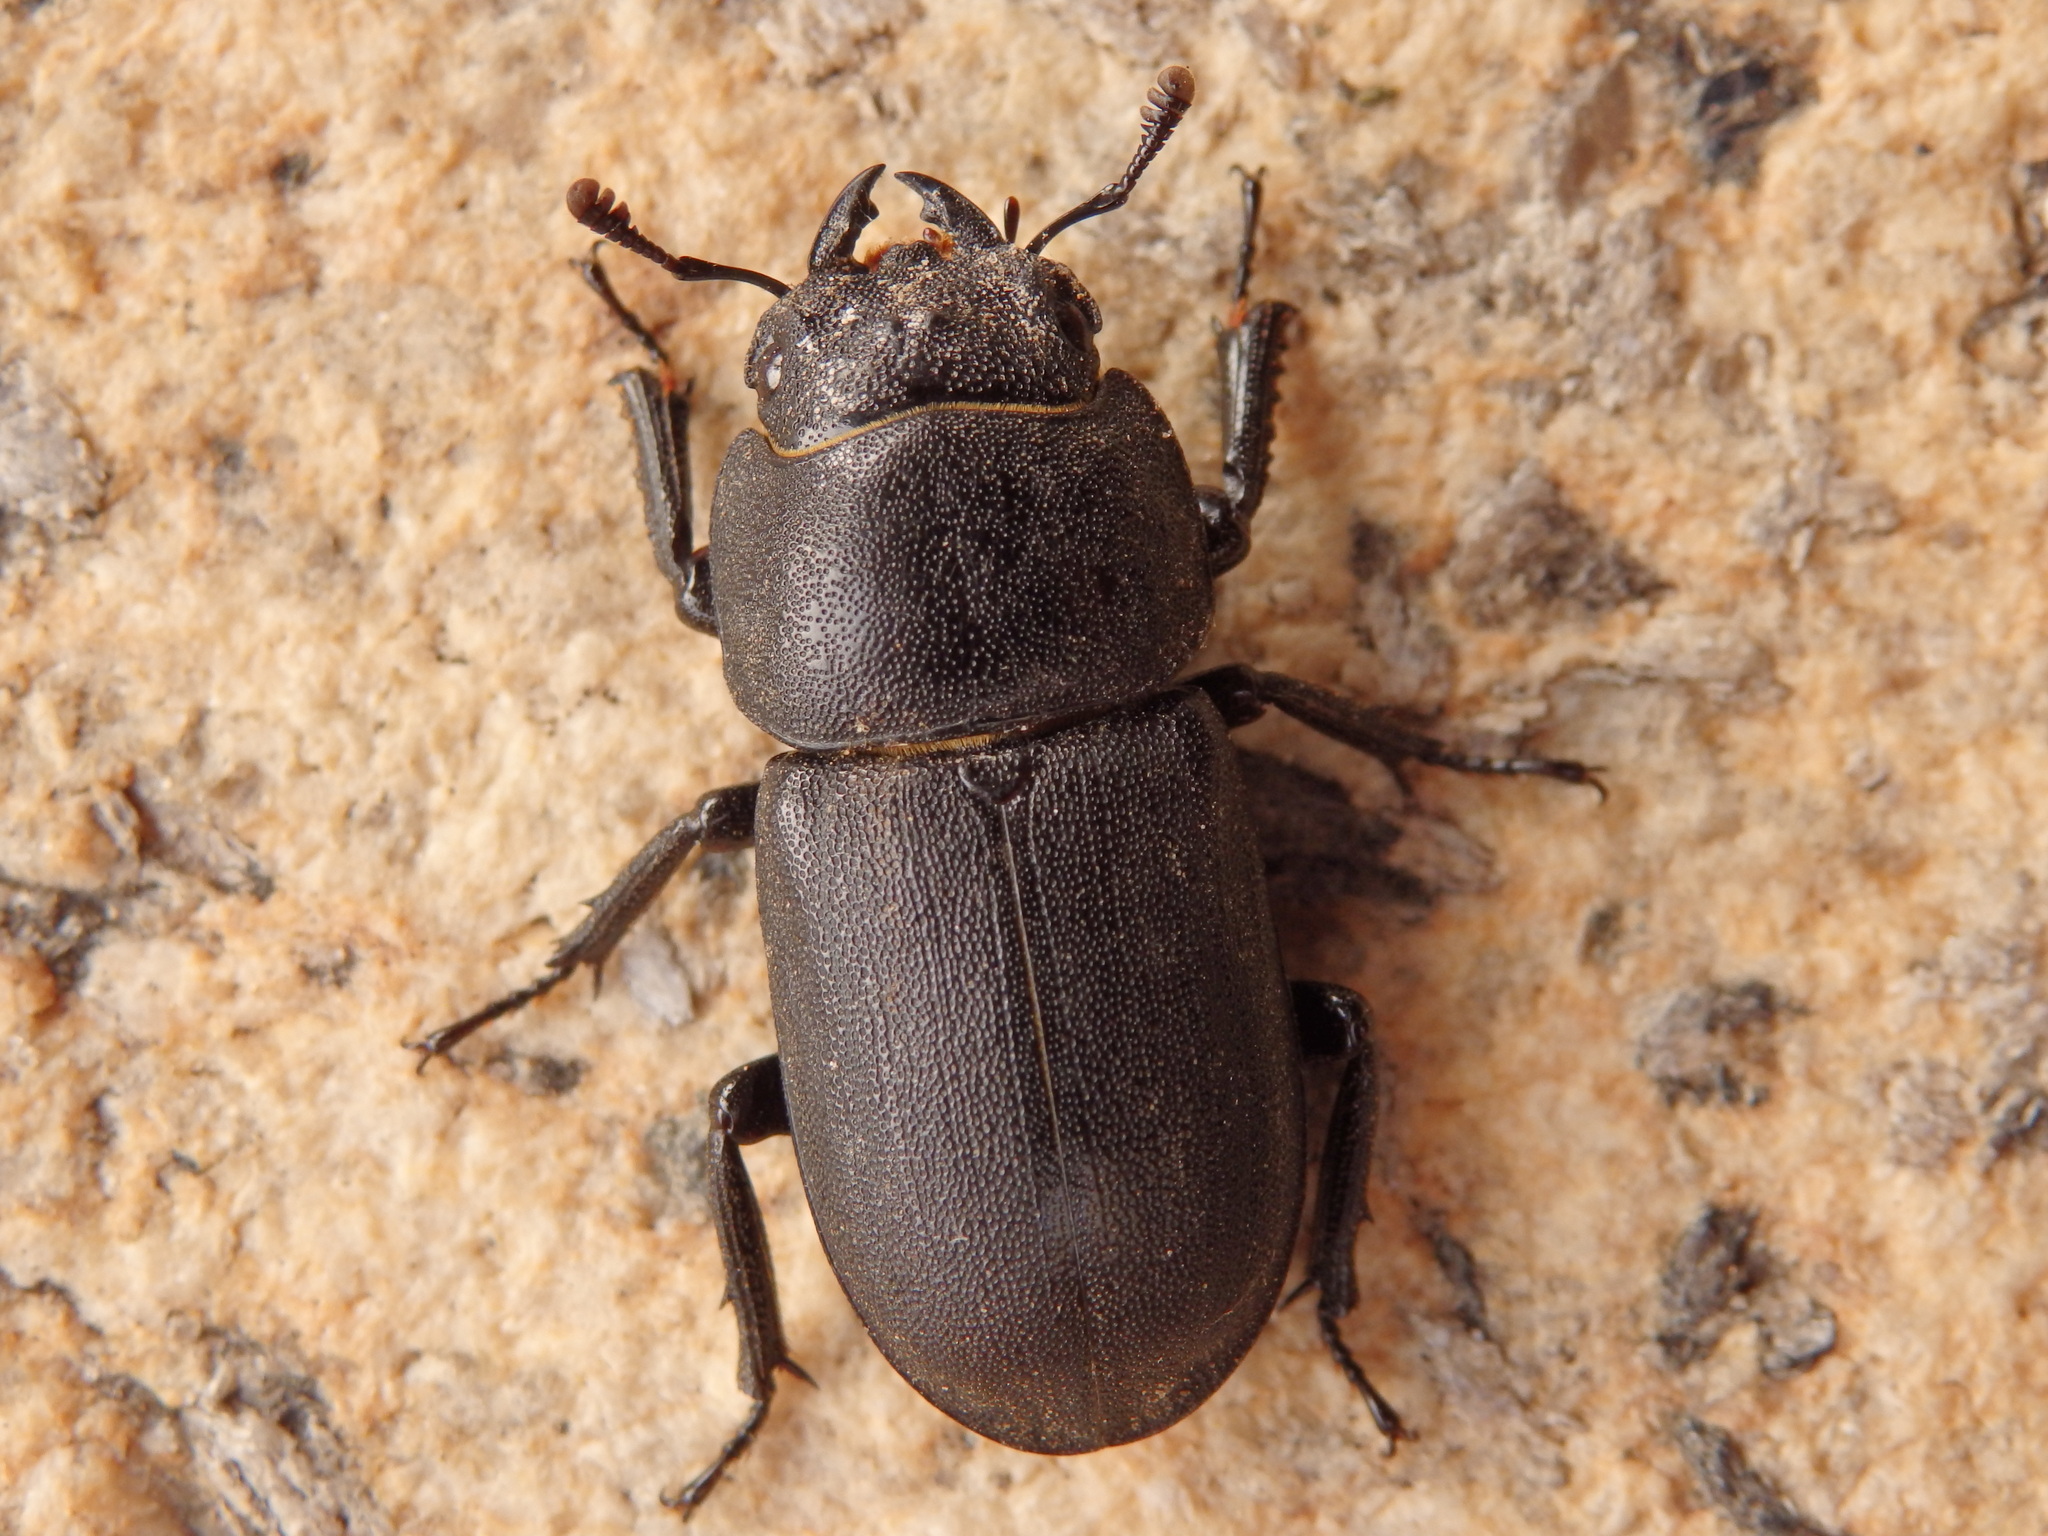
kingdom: Animalia
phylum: Arthropoda
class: Insecta
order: Coleoptera
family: Lucanidae
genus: Dorcus
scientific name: Dorcus parallelipipedus
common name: Lesser stag beetle
